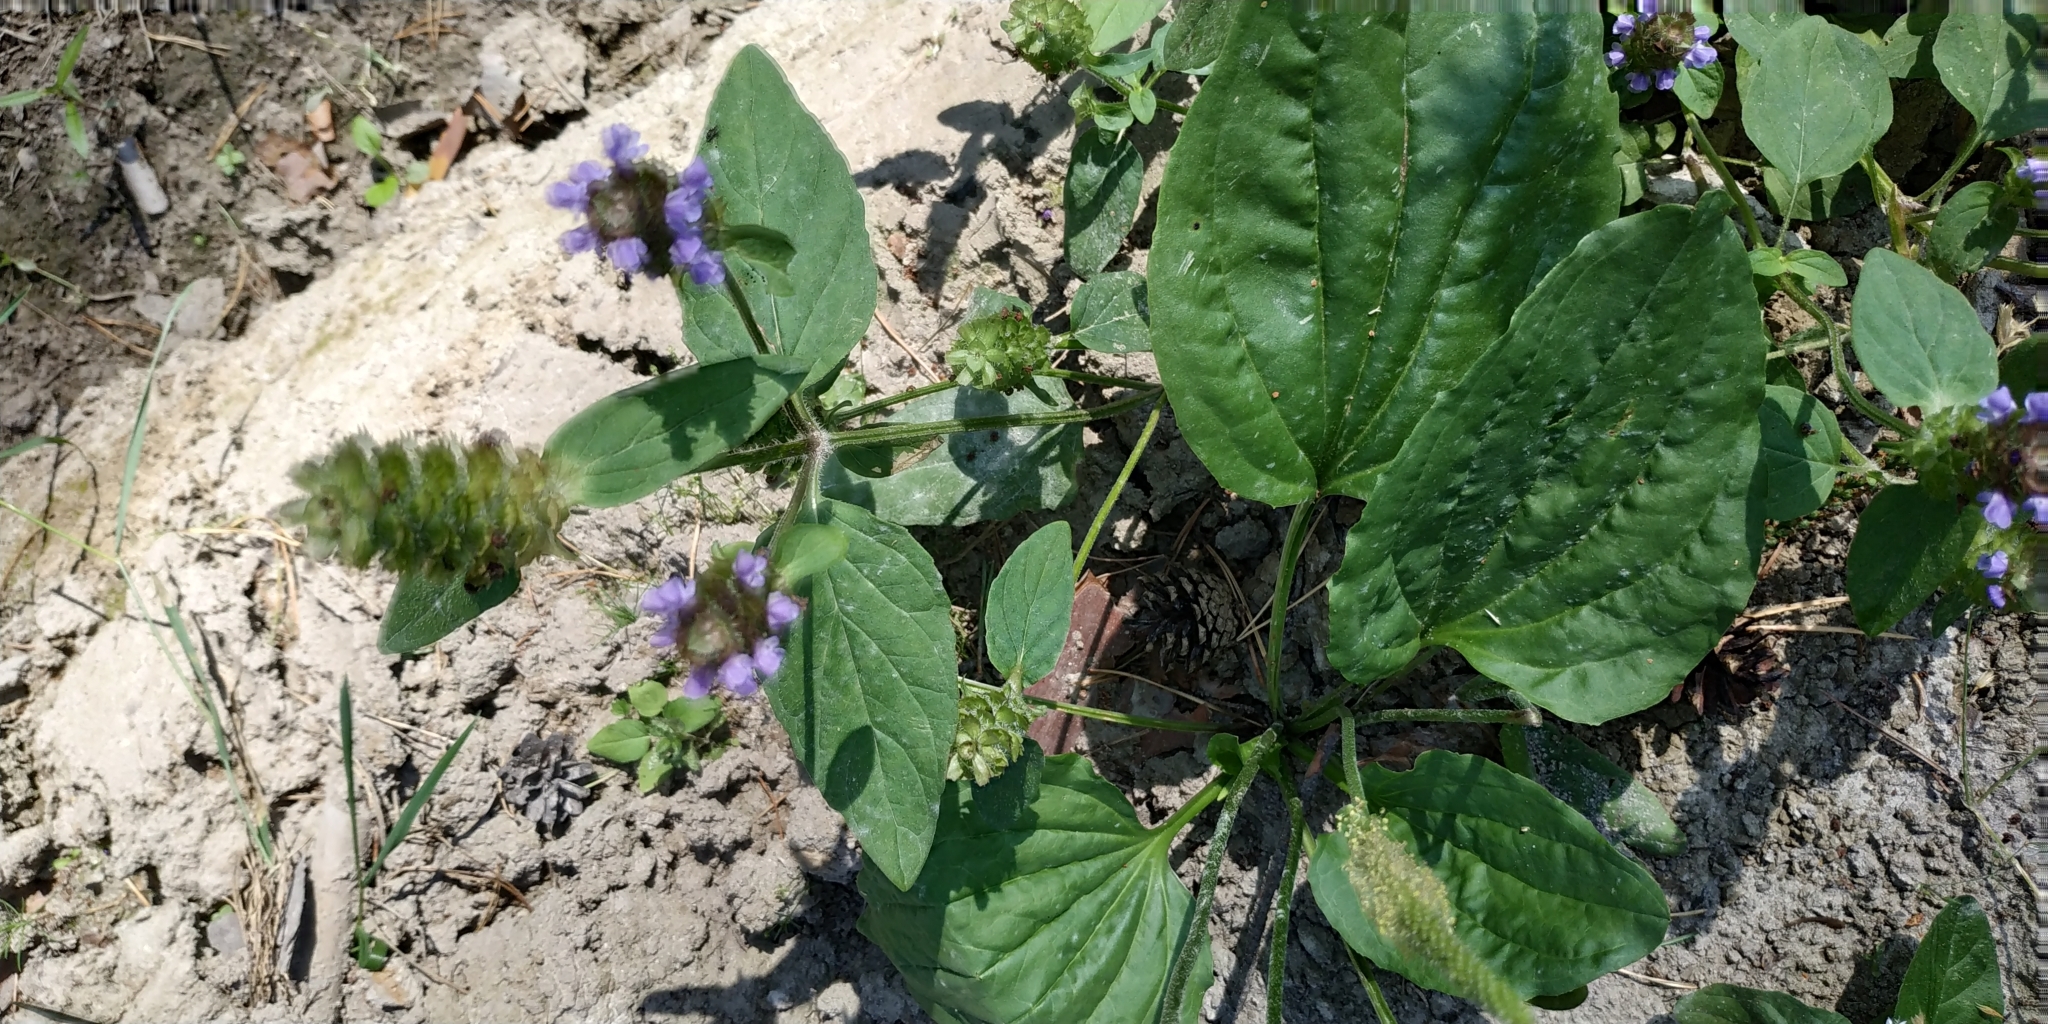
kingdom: Plantae
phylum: Tracheophyta
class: Magnoliopsida
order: Lamiales
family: Lamiaceae
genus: Prunella
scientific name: Prunella vulgaris
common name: Heal-all
